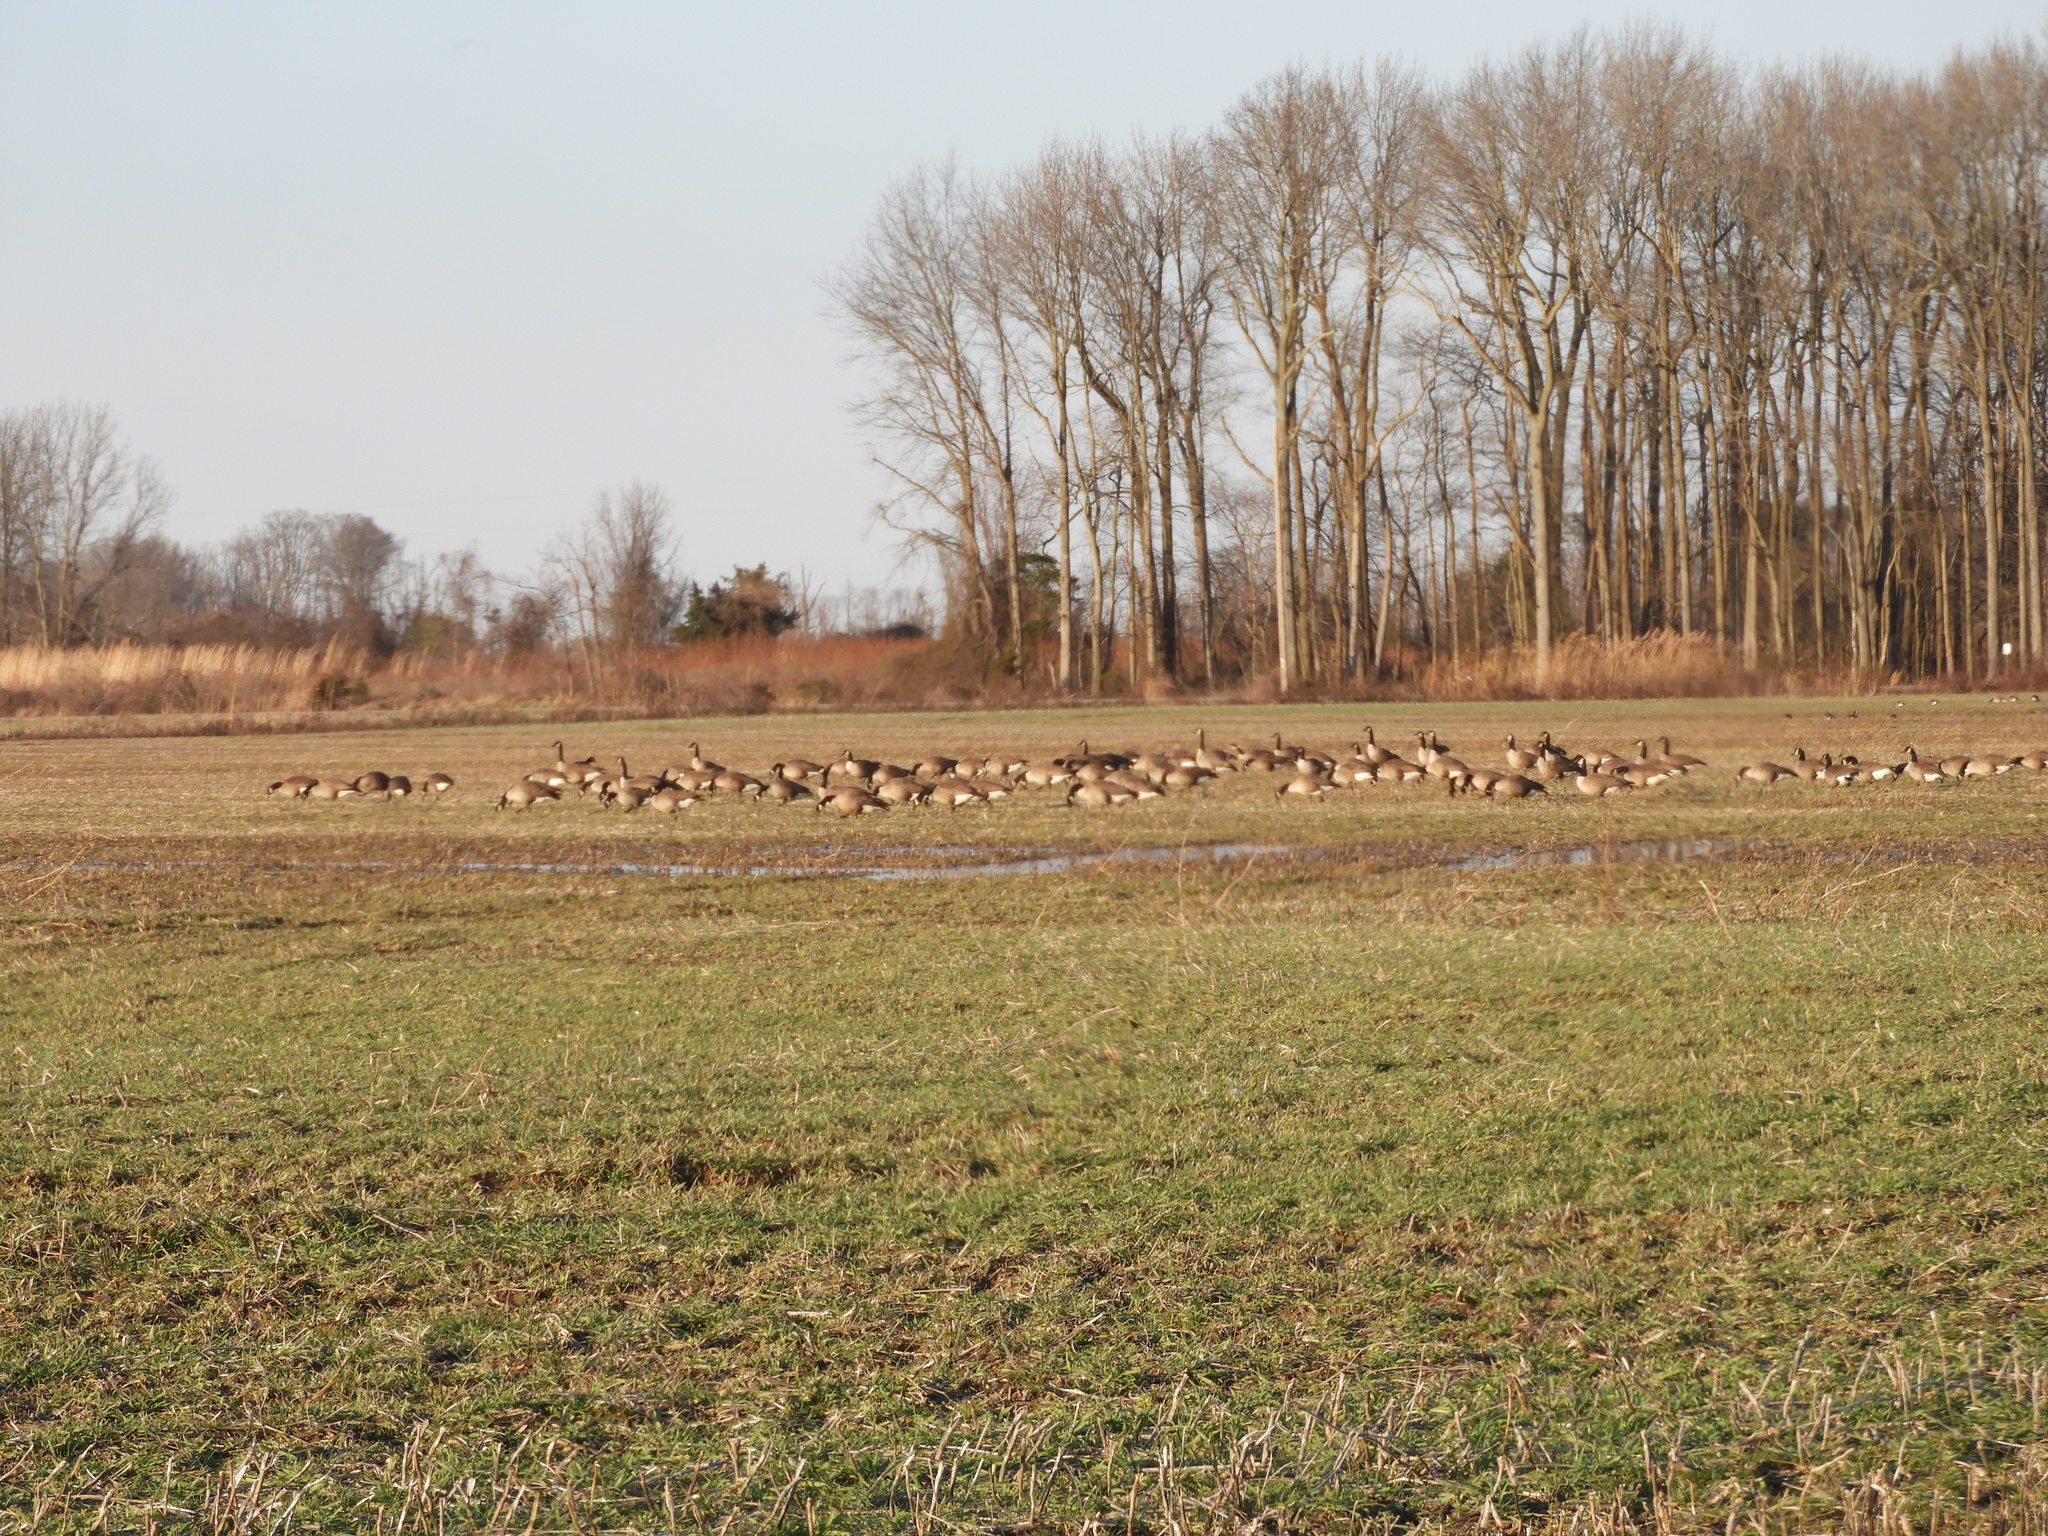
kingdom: Animalia
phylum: Chordata
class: Aves
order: Anseriformes
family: Anatidae
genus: Branta
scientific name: Branta canadensis
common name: Canada goose
